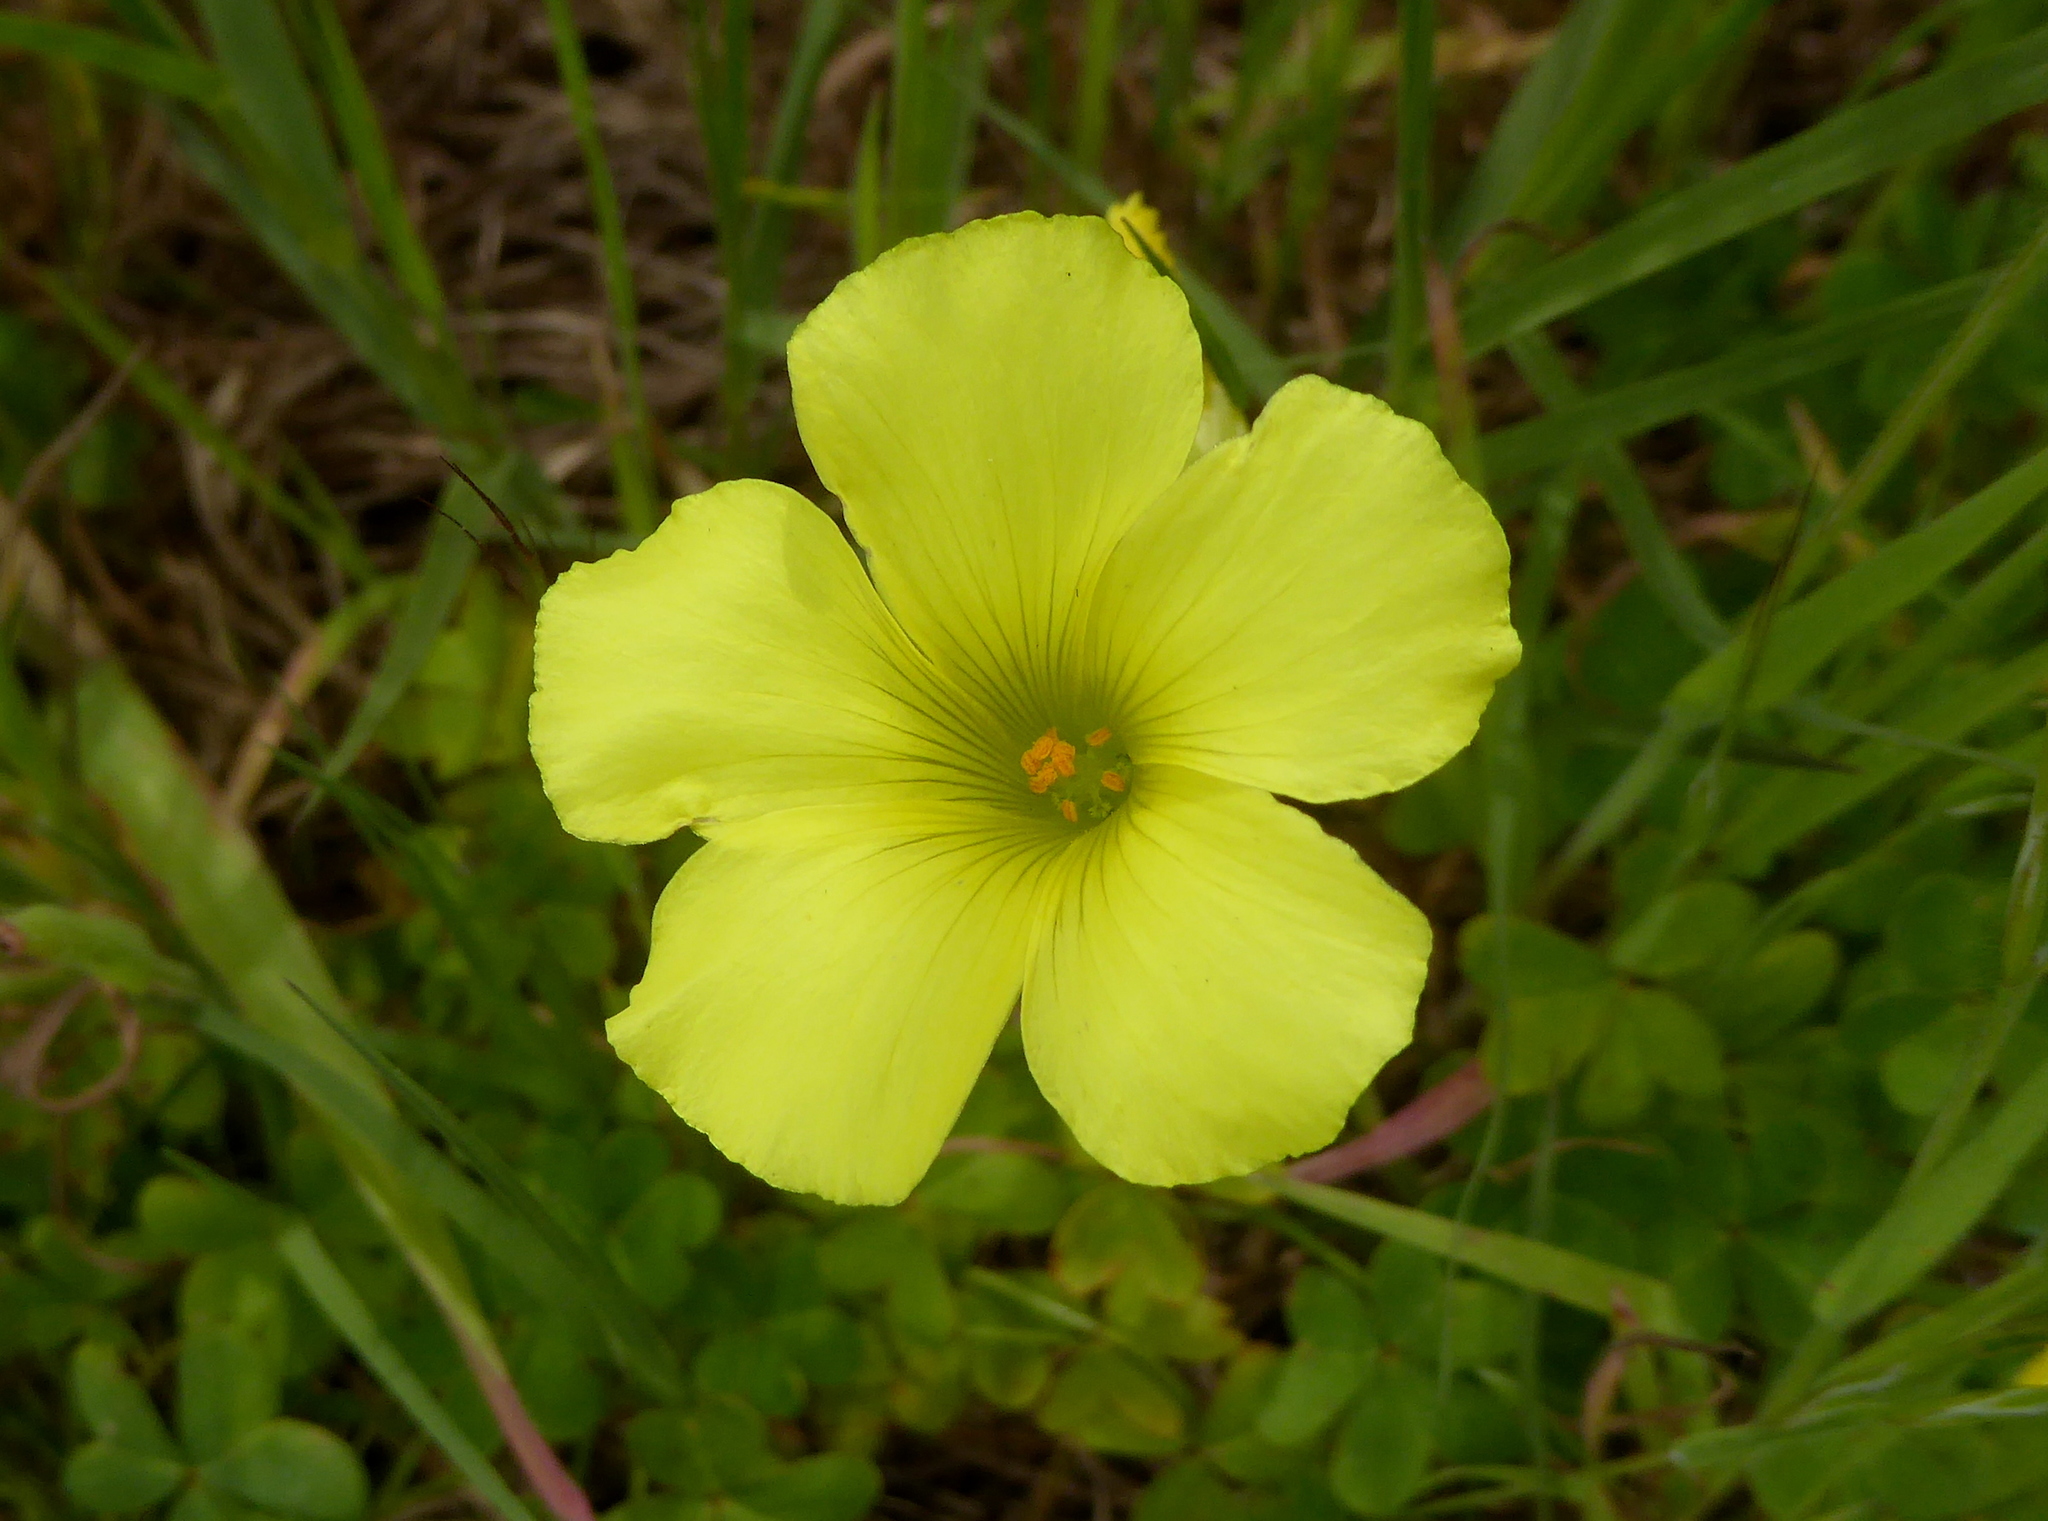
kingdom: Plantae
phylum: Tracheophyta
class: Magnoliopsida
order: Oxalidales
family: Oxalidaceae
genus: Oxalis
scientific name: Oxalis pes-caprae
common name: Bermuda-buttercup
